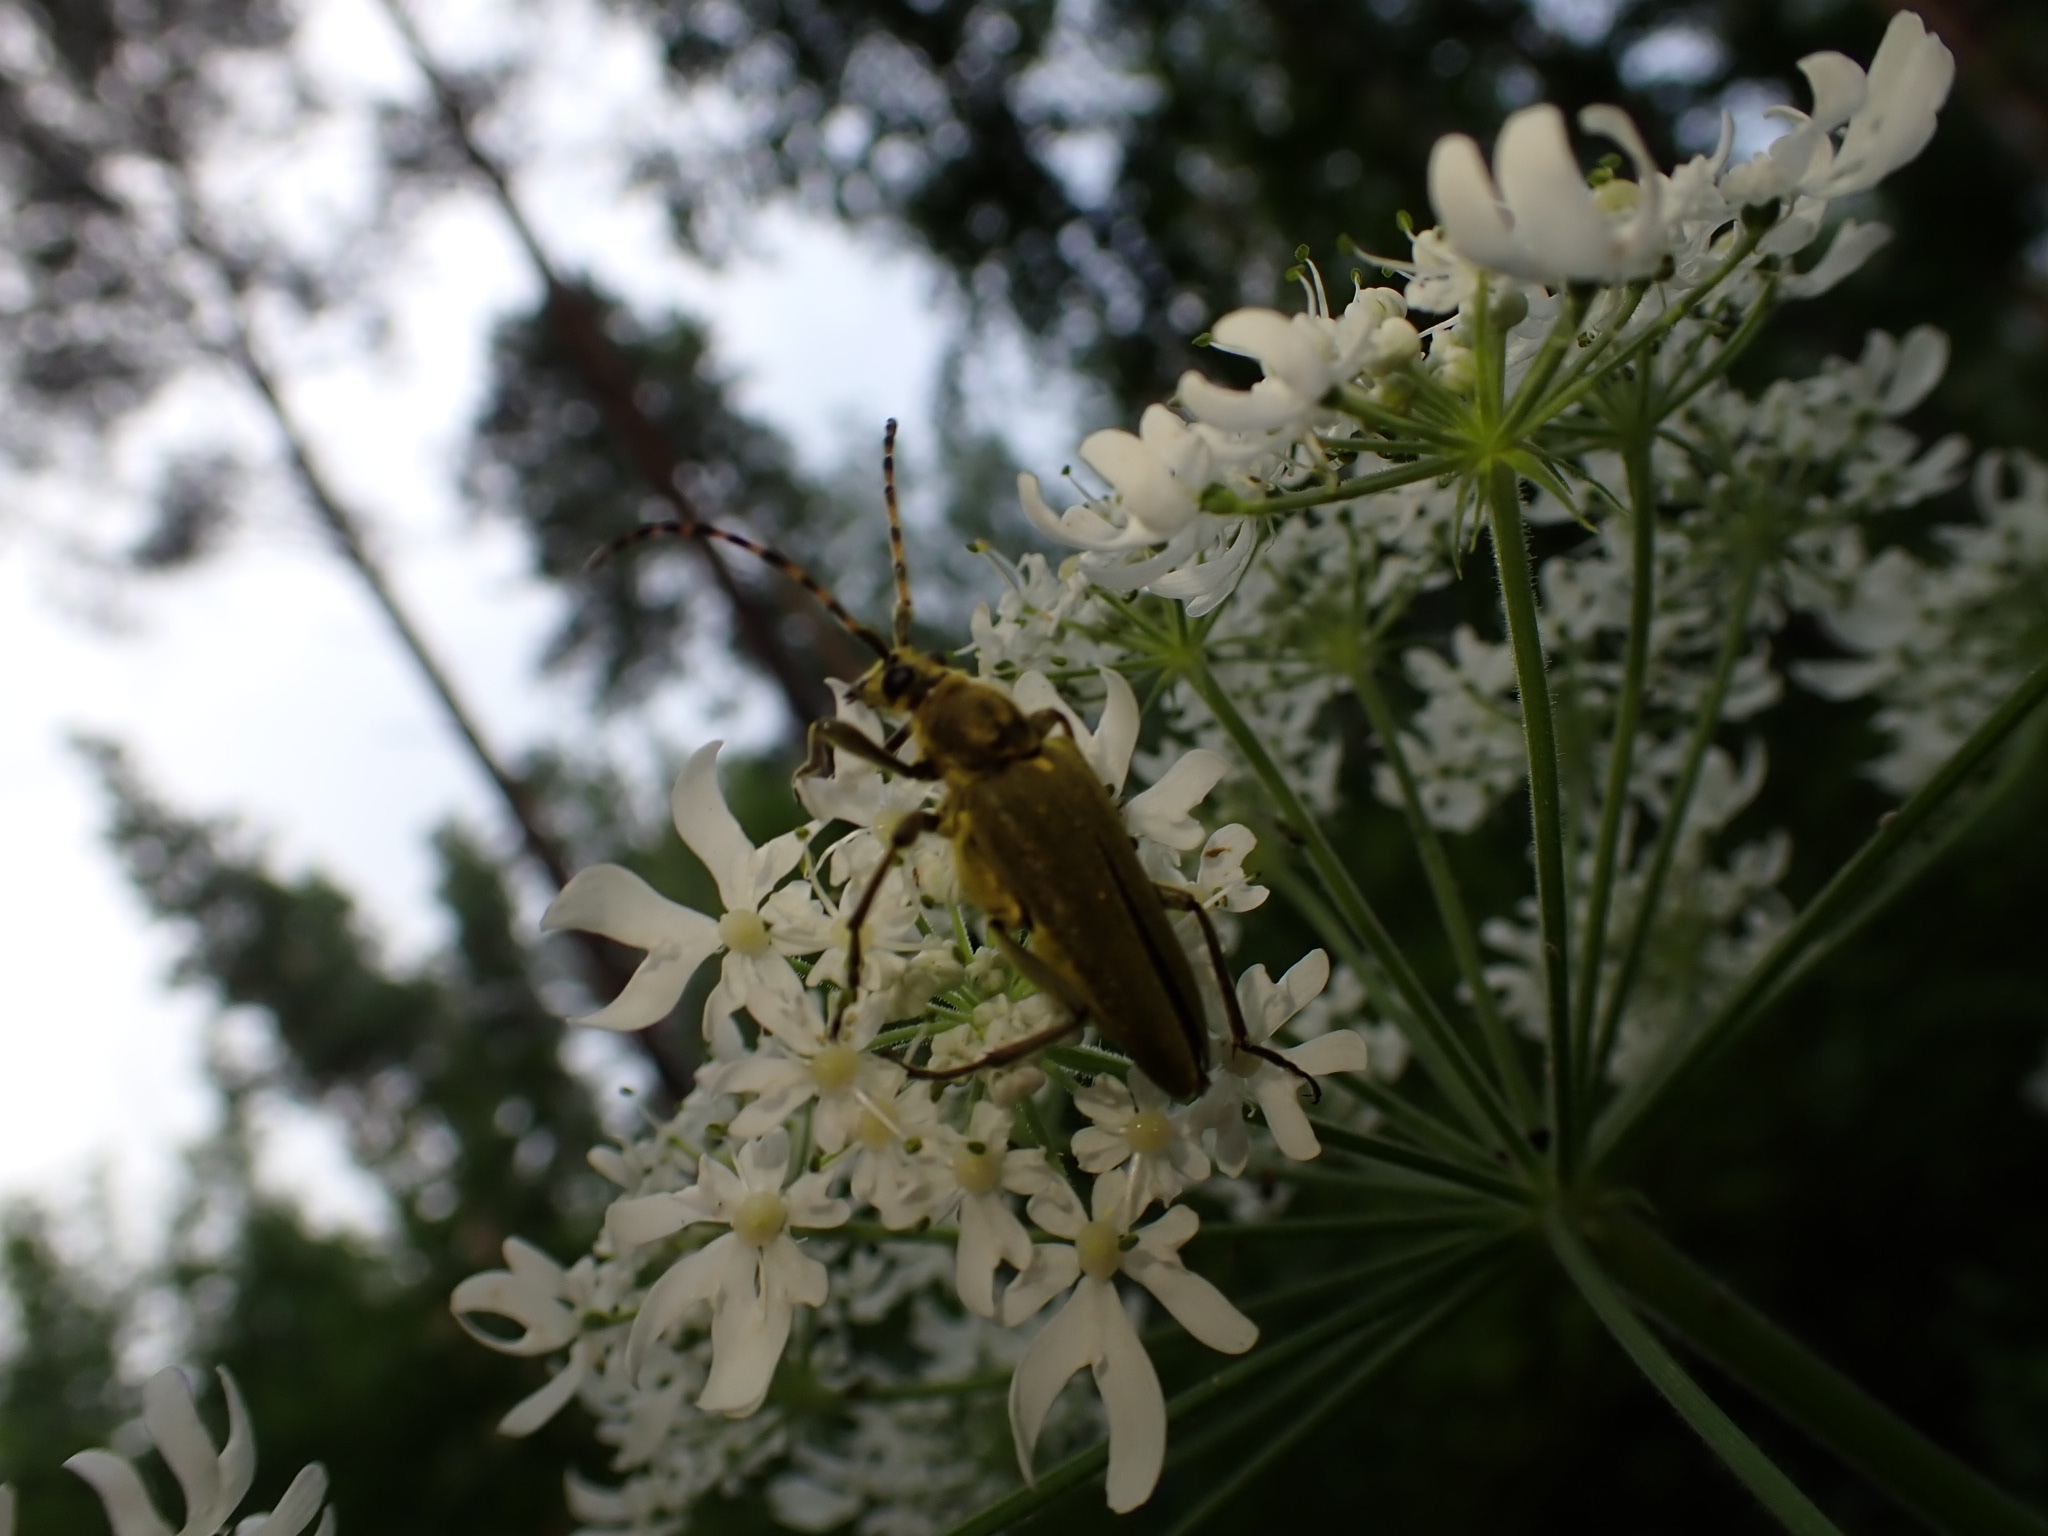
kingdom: Animalia
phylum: Arthropoda
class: Insecta
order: Coleoptera
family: Cerambycidae
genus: Lepturobosca
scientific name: Lepturobosca virens
